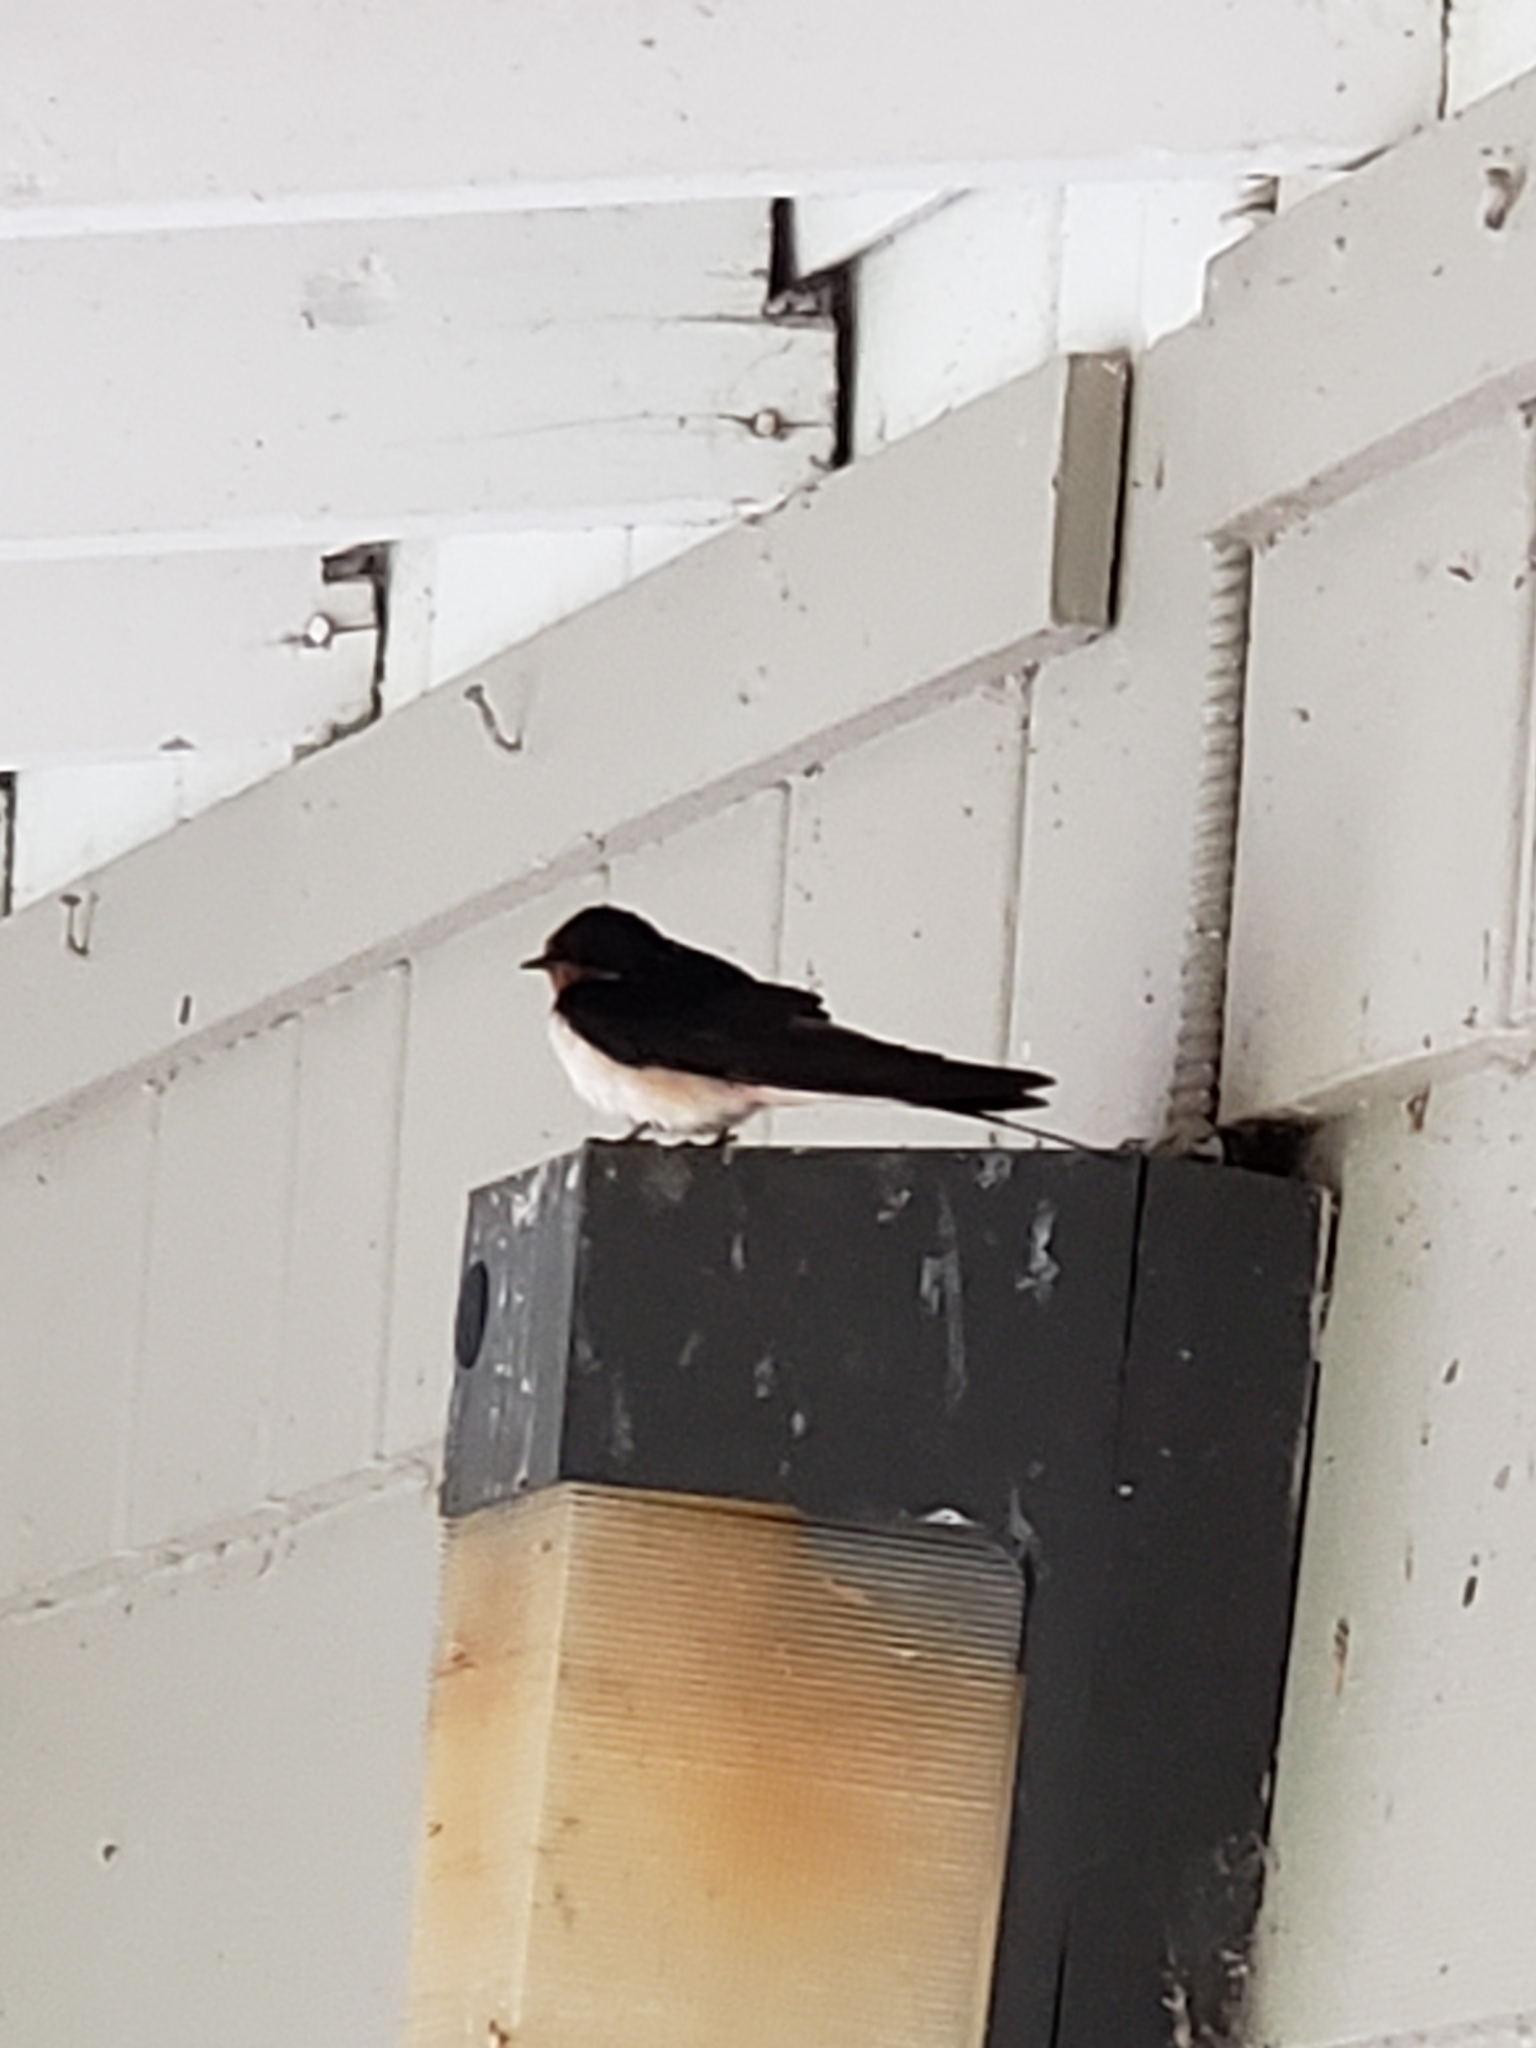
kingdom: Animalia
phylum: Chordata
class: Aves
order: Passeriformes
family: Hirundinidae
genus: Hirundo
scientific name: Hirundo rustica
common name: Barn swallow
